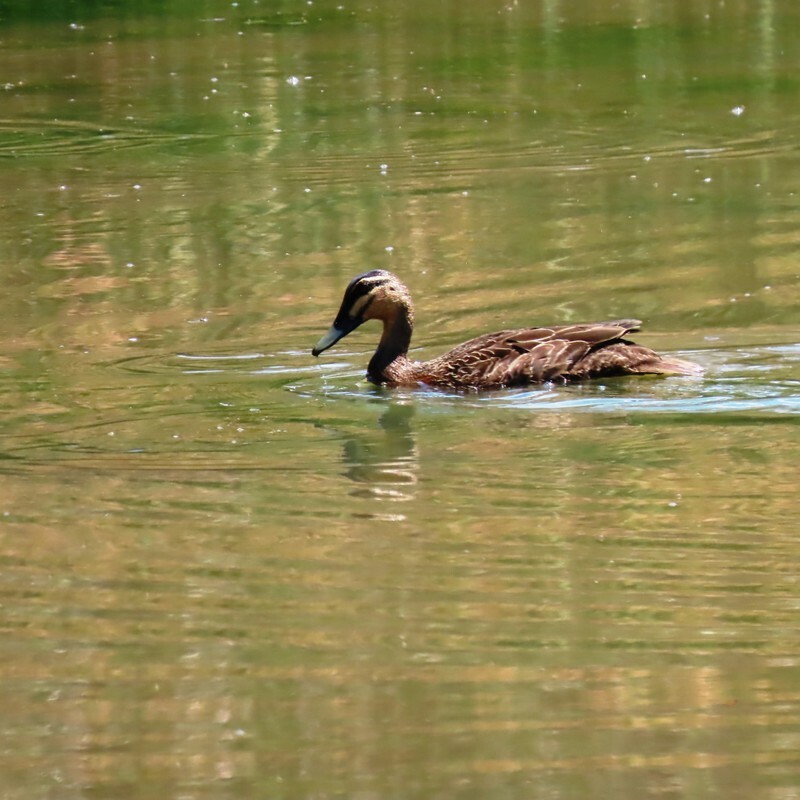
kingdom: Animalia
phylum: Chordata
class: Aves
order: Anseriformes
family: Anatidae
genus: Anas
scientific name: Anas superciliosa
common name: Pacific black duck
